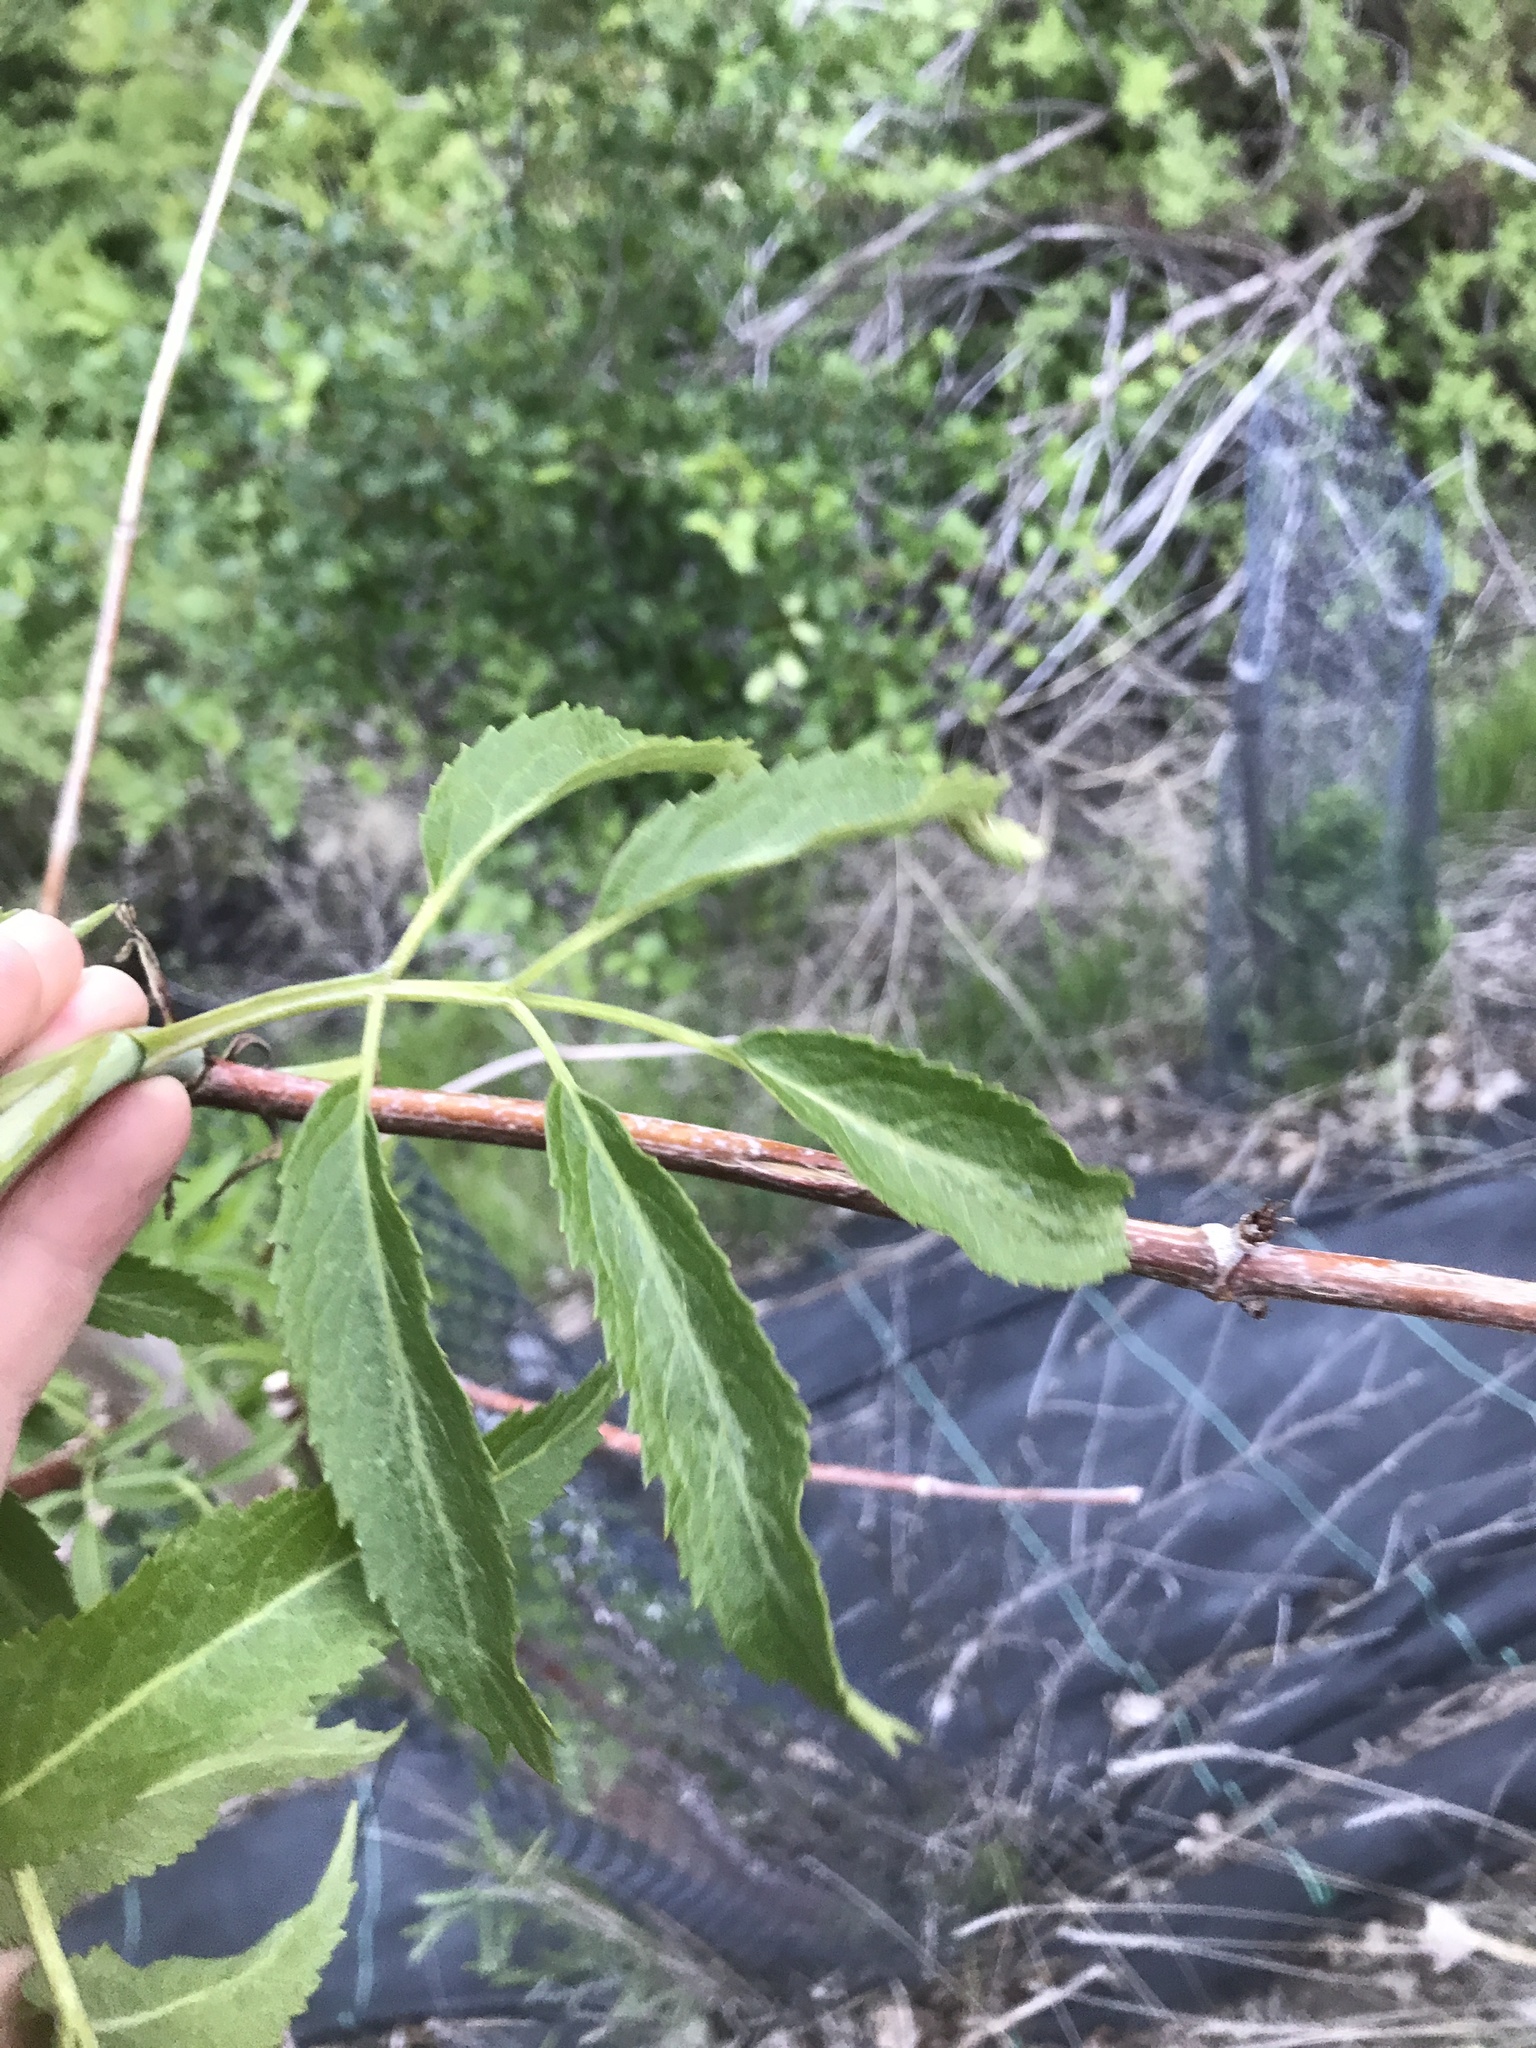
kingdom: Plantae
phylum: Tracheophyta
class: Magnoliopsida
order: Dipsacales
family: Viburnaceae
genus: Sambucus
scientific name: Sambucus cerulea
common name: Blue elder
